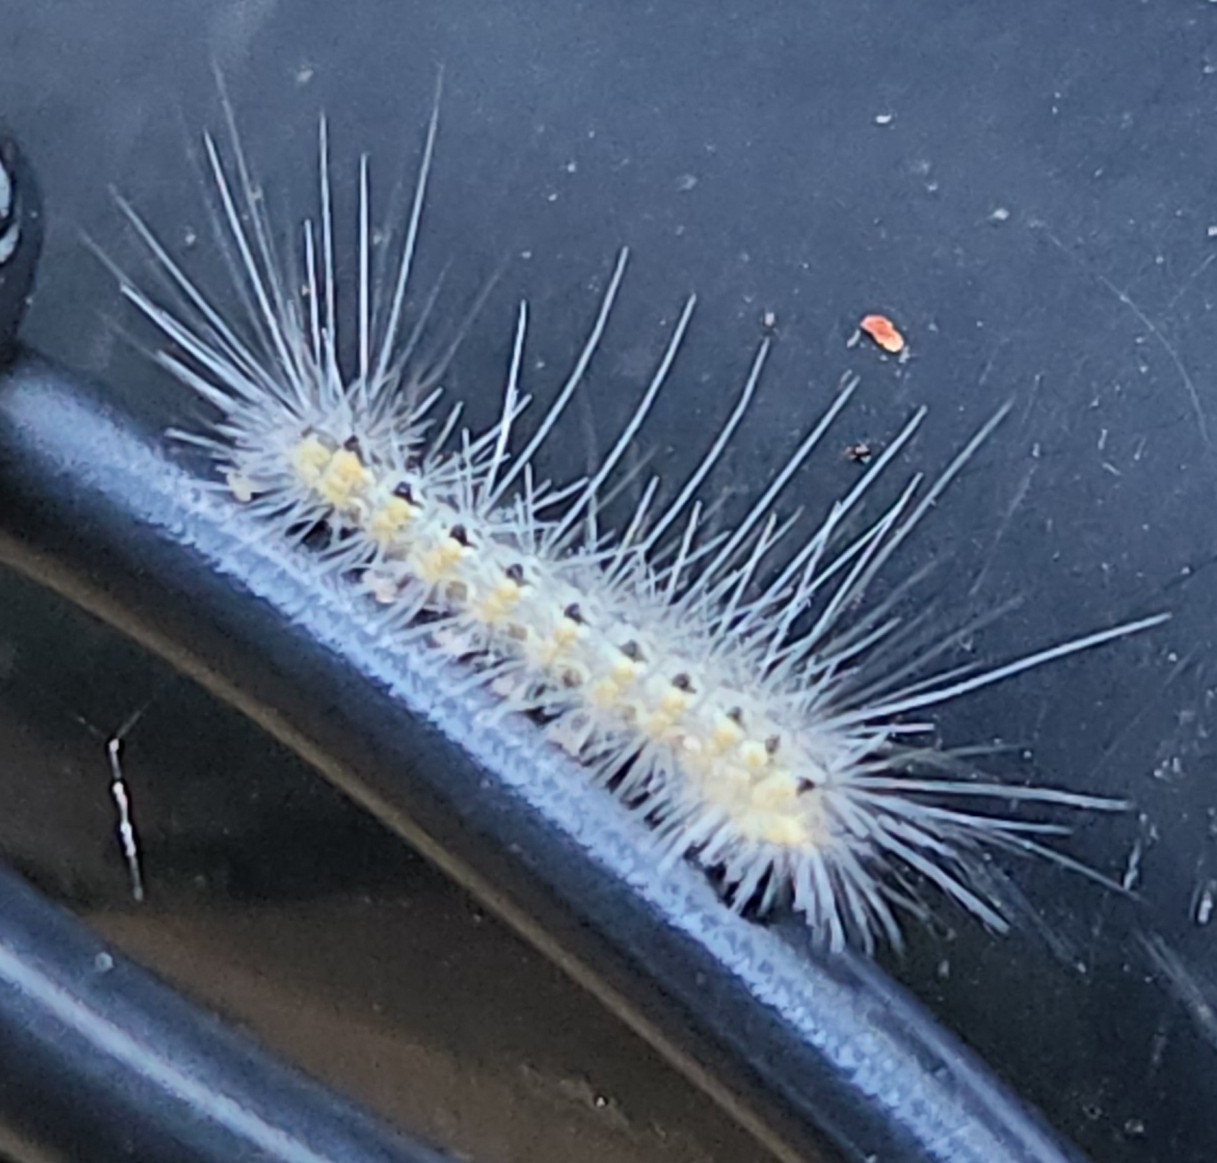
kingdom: Animalia
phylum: Arthropoda
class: Insecta
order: Lepidoptera
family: Erebidae
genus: Hyphantria
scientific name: Hyphantria cunea
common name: American white moth
